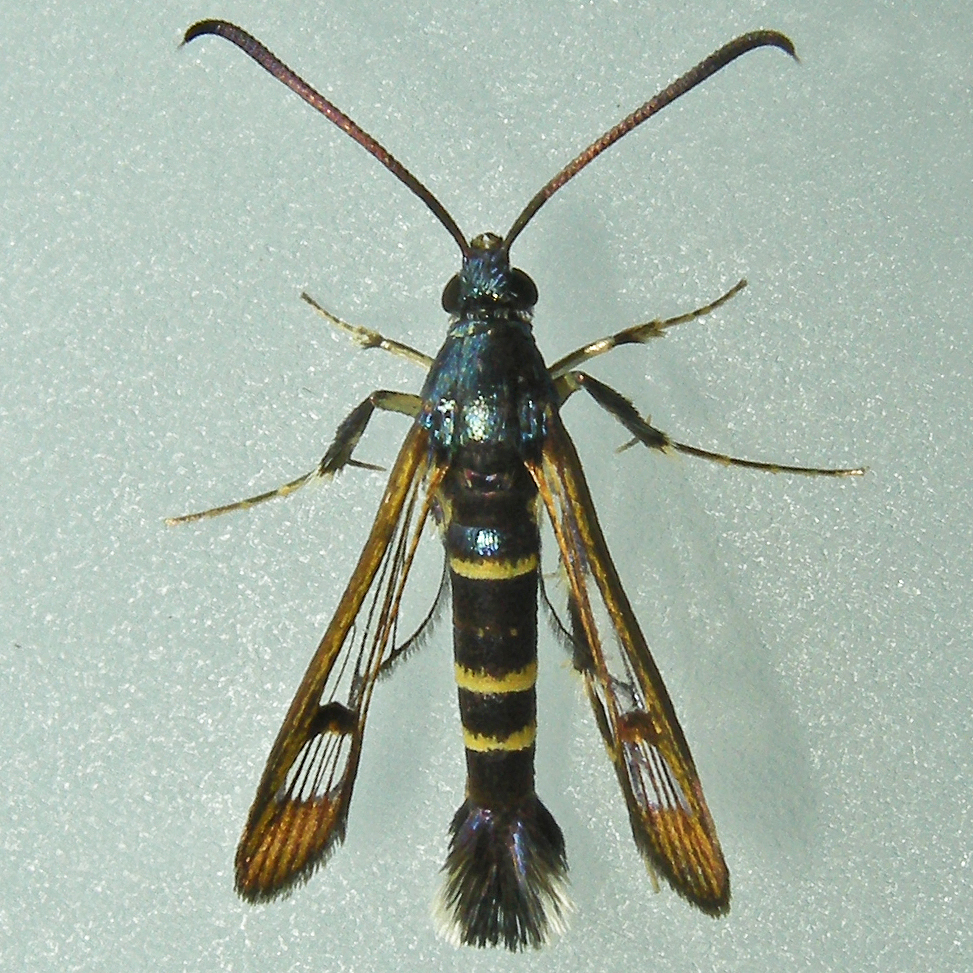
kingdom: Animalia
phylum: Arthropoda
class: Insecta
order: Lepidoptera
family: Sesiidae
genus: Synanthedon
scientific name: Synanthedon rhododendri
